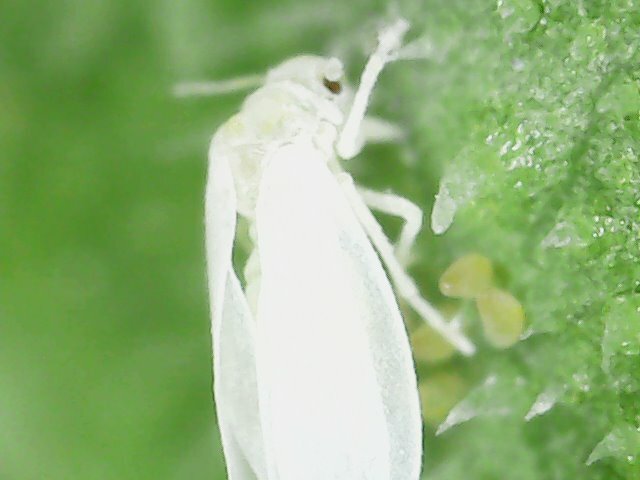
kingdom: Animalia
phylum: Arthropoda
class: Insecta
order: Hemiptera
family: Aleyrodidae
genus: Bemisia
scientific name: Bemisia tabaci
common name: Sweetpotato whitefly
